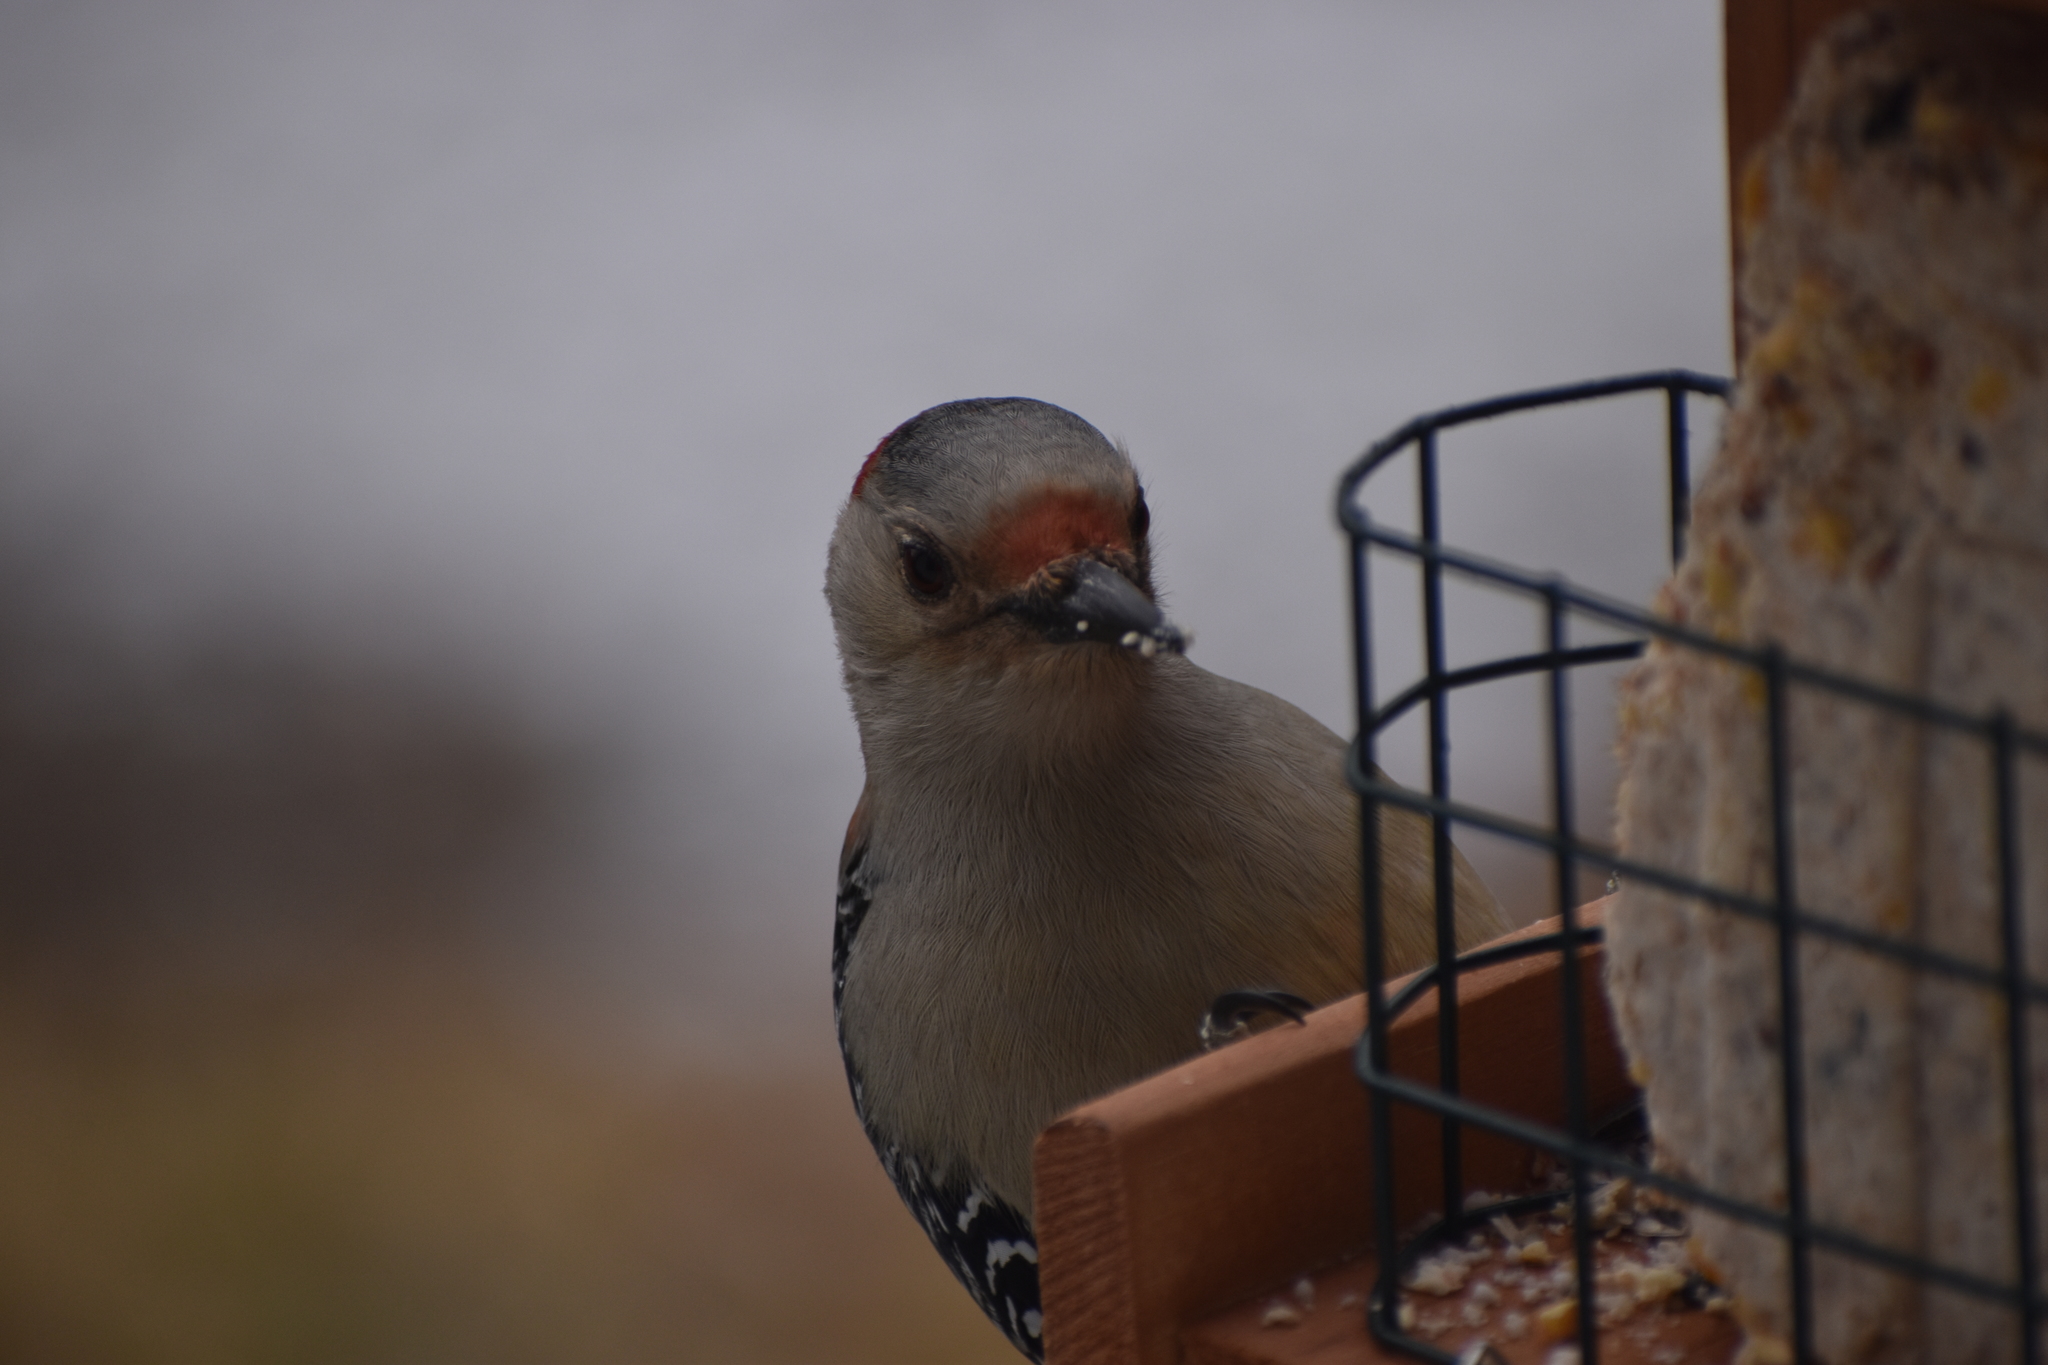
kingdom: Animalia
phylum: Chordata
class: Aves
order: Piciformes
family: Picidae
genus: Melanerpes
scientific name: Melanerpes carolinus
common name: Red-bellied woodpecker
